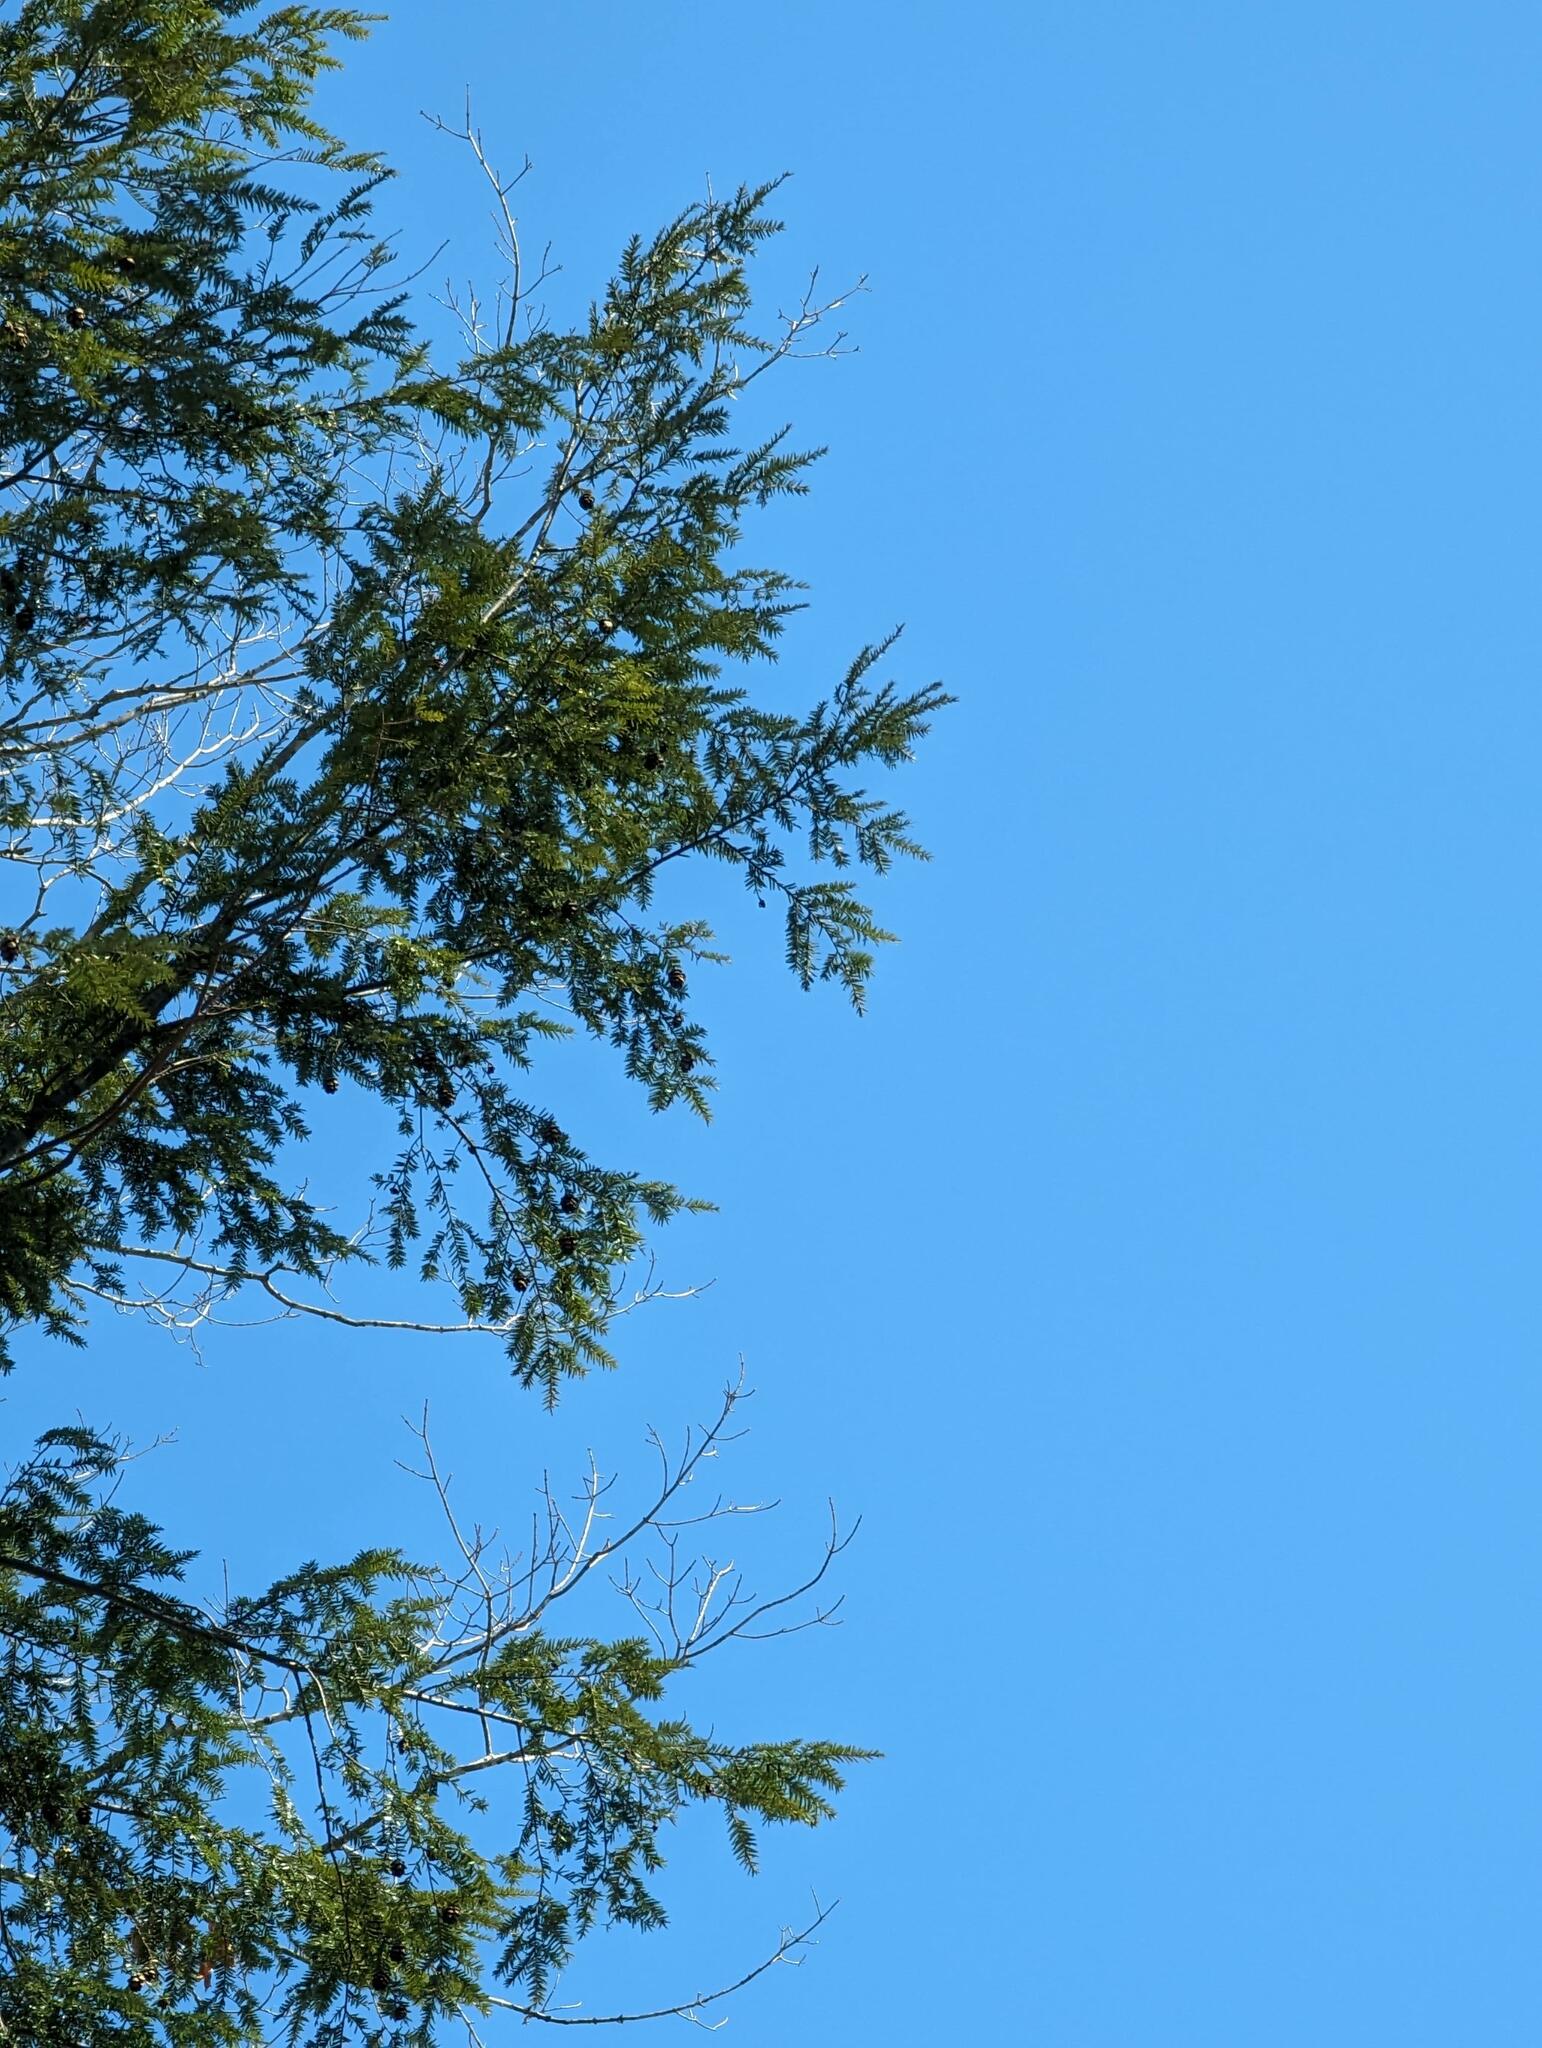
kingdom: Plantae
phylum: Tracheophyta
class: Pinopsida
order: Pinales
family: Pinaceae
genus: Tsuga
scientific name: Tsuga canadensis
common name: Eastern hemlock
